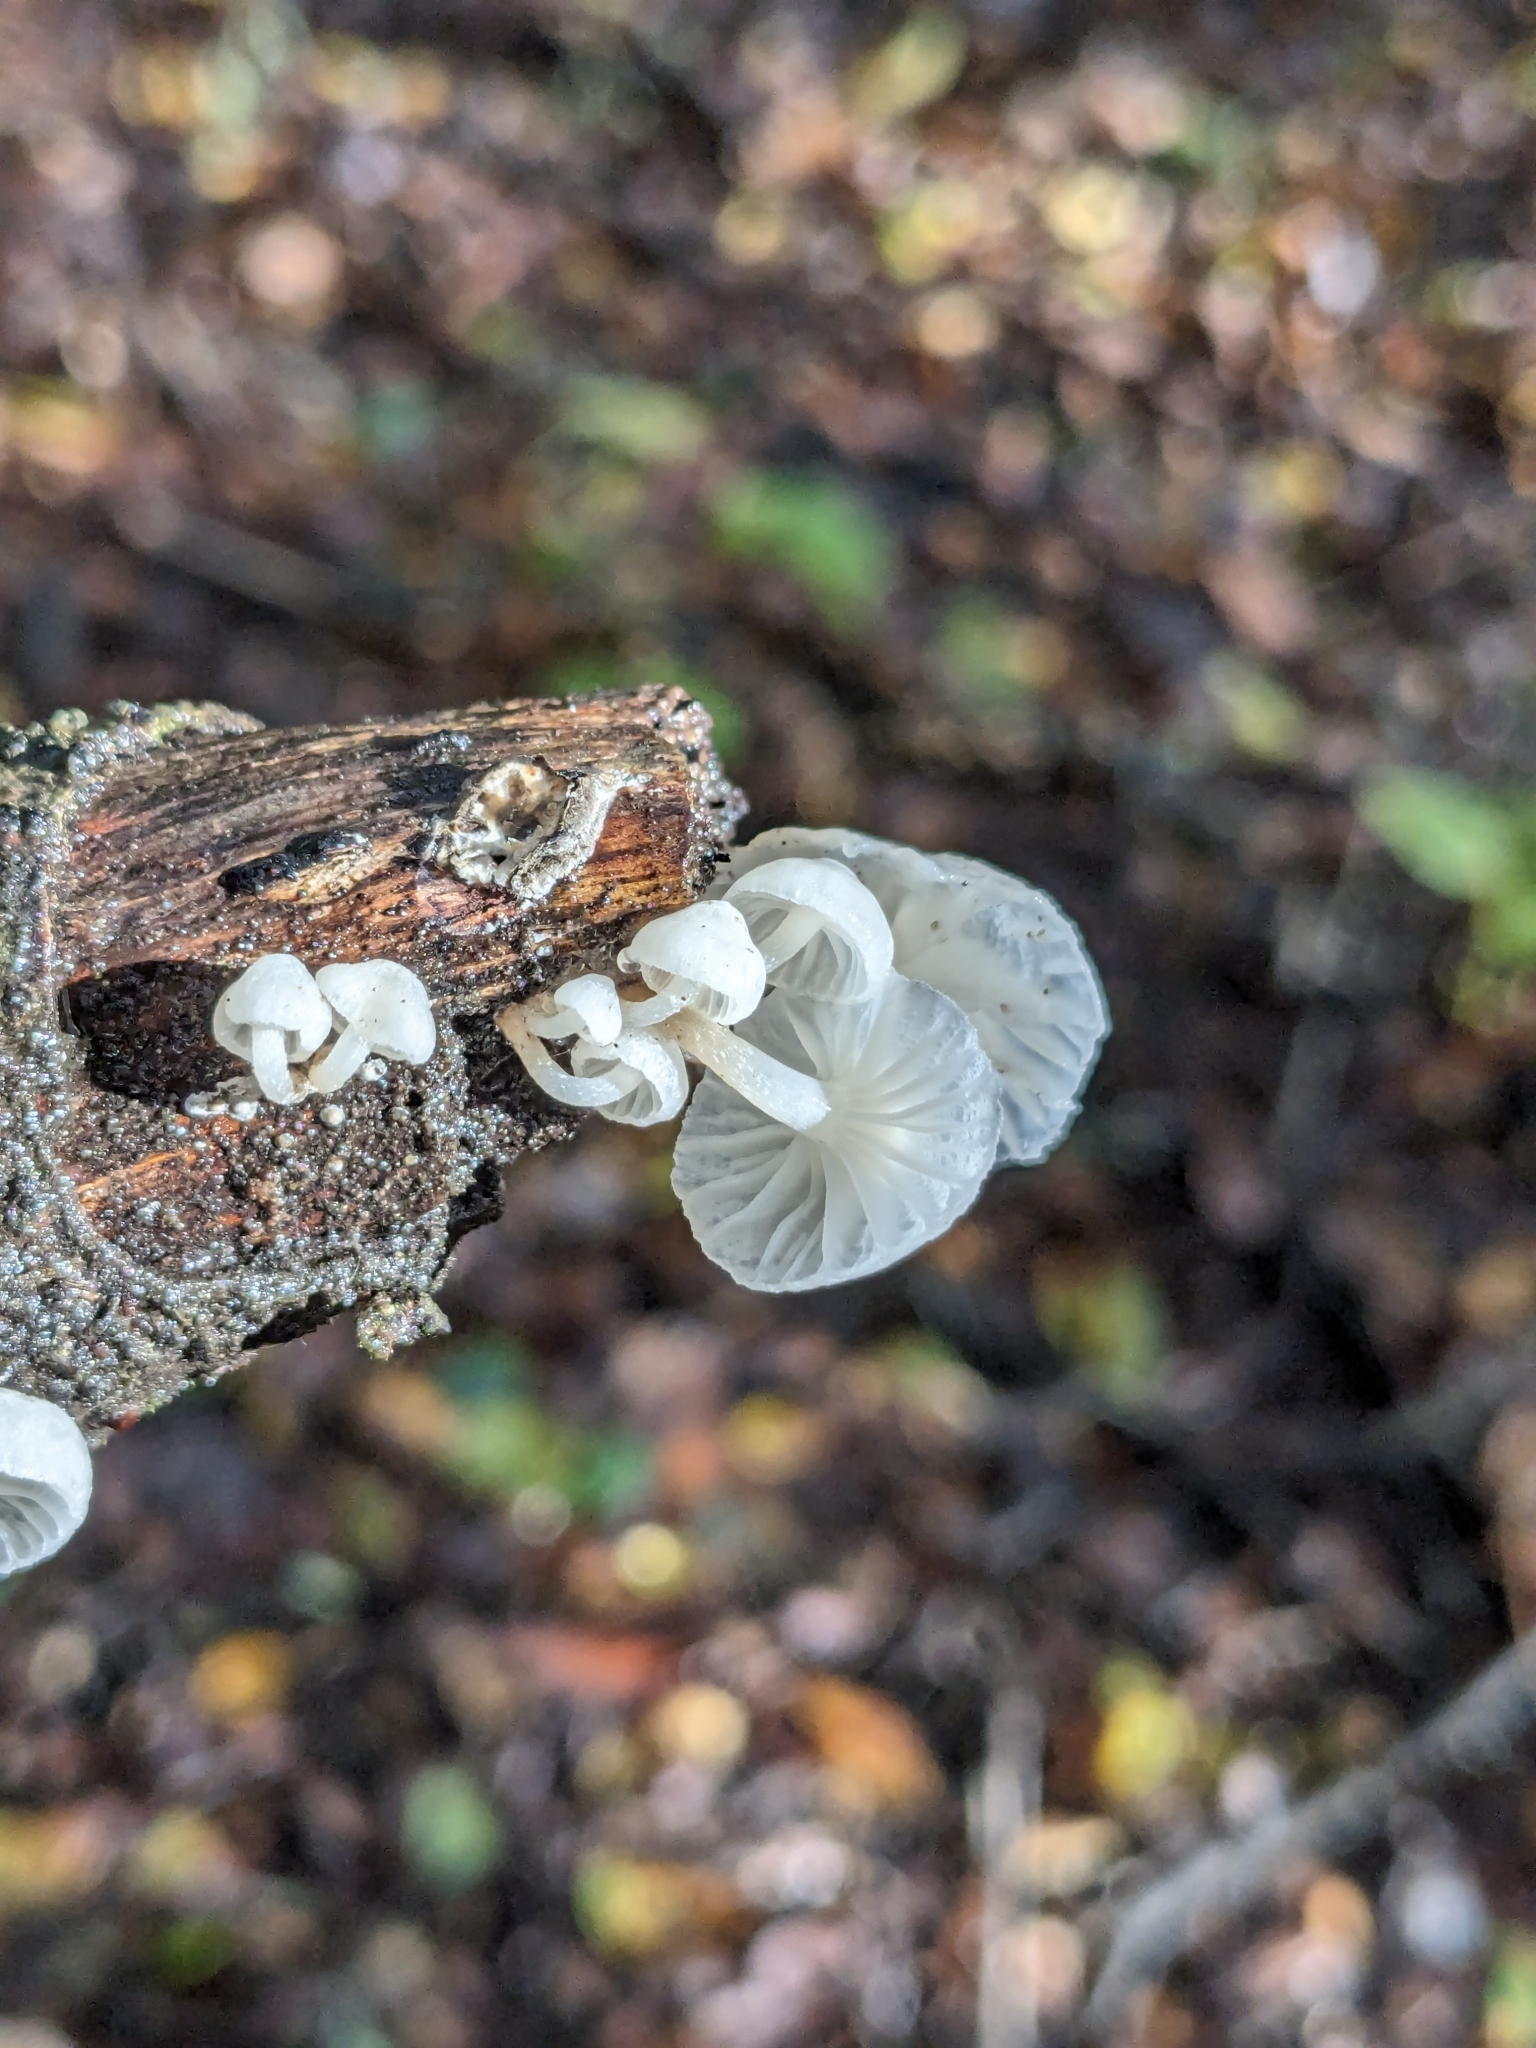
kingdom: Fungi
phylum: Basidiomycota
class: Agaricomycetes
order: Agaricales
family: Omphalotaceae
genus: Marasmiellus
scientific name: Marasmiellus candidus
